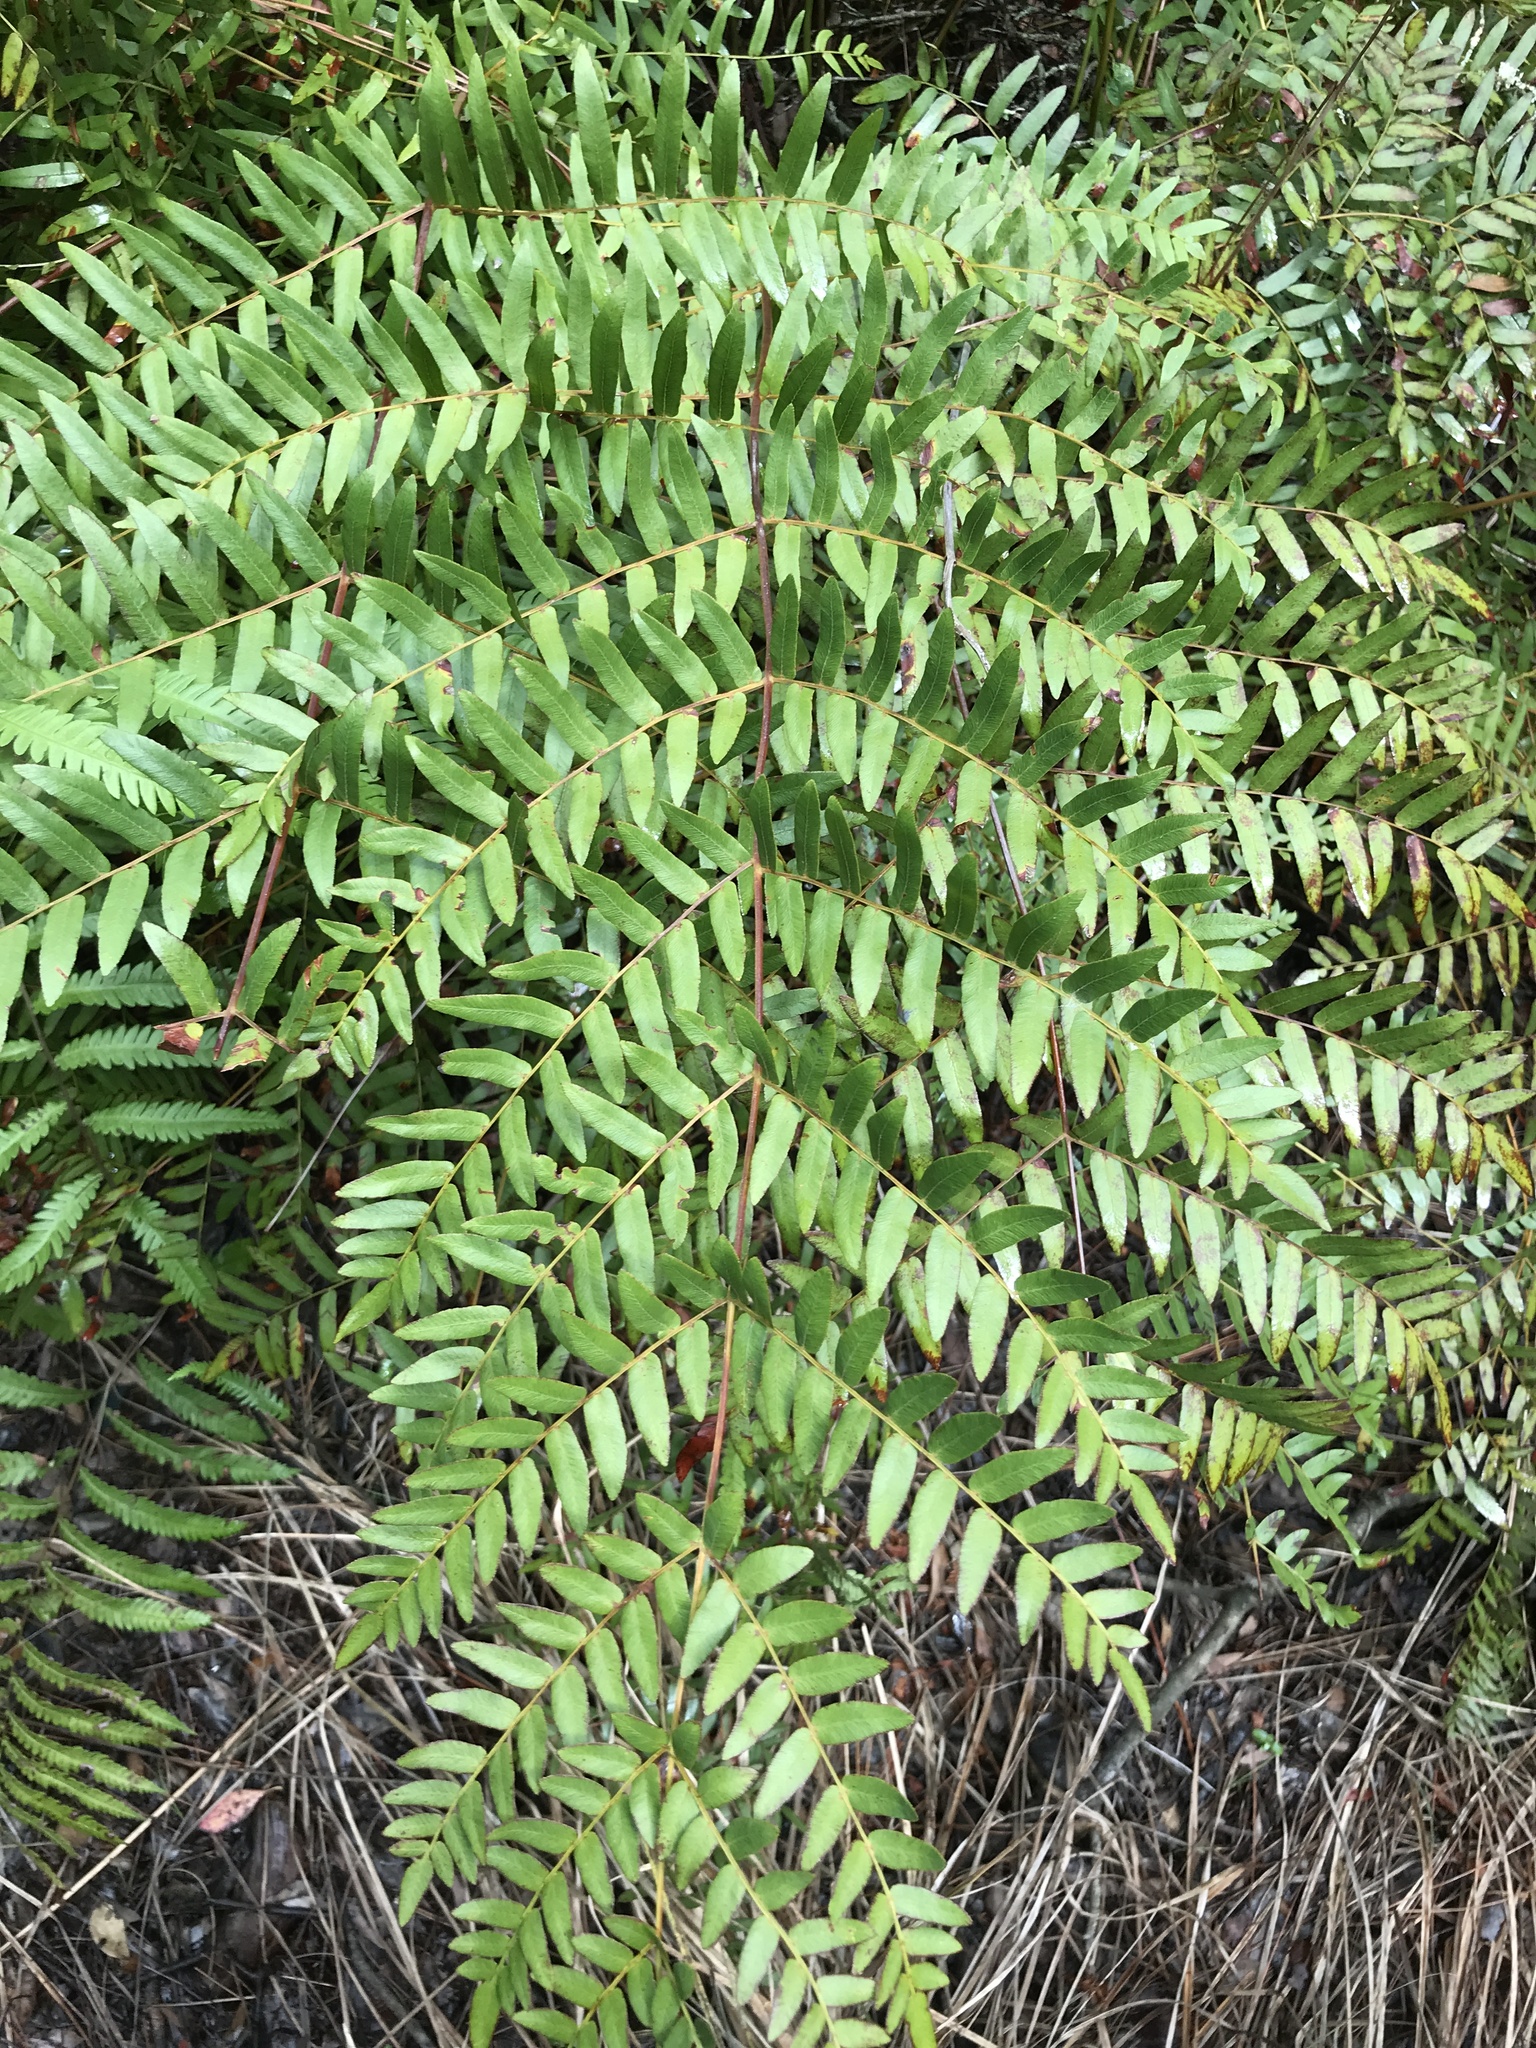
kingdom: Plantae
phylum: Tracheophyta
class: Polypodiopsida
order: Osmundales
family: Osmundaceae
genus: Osmunda
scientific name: Osmunda spectabilis
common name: American royal fern
